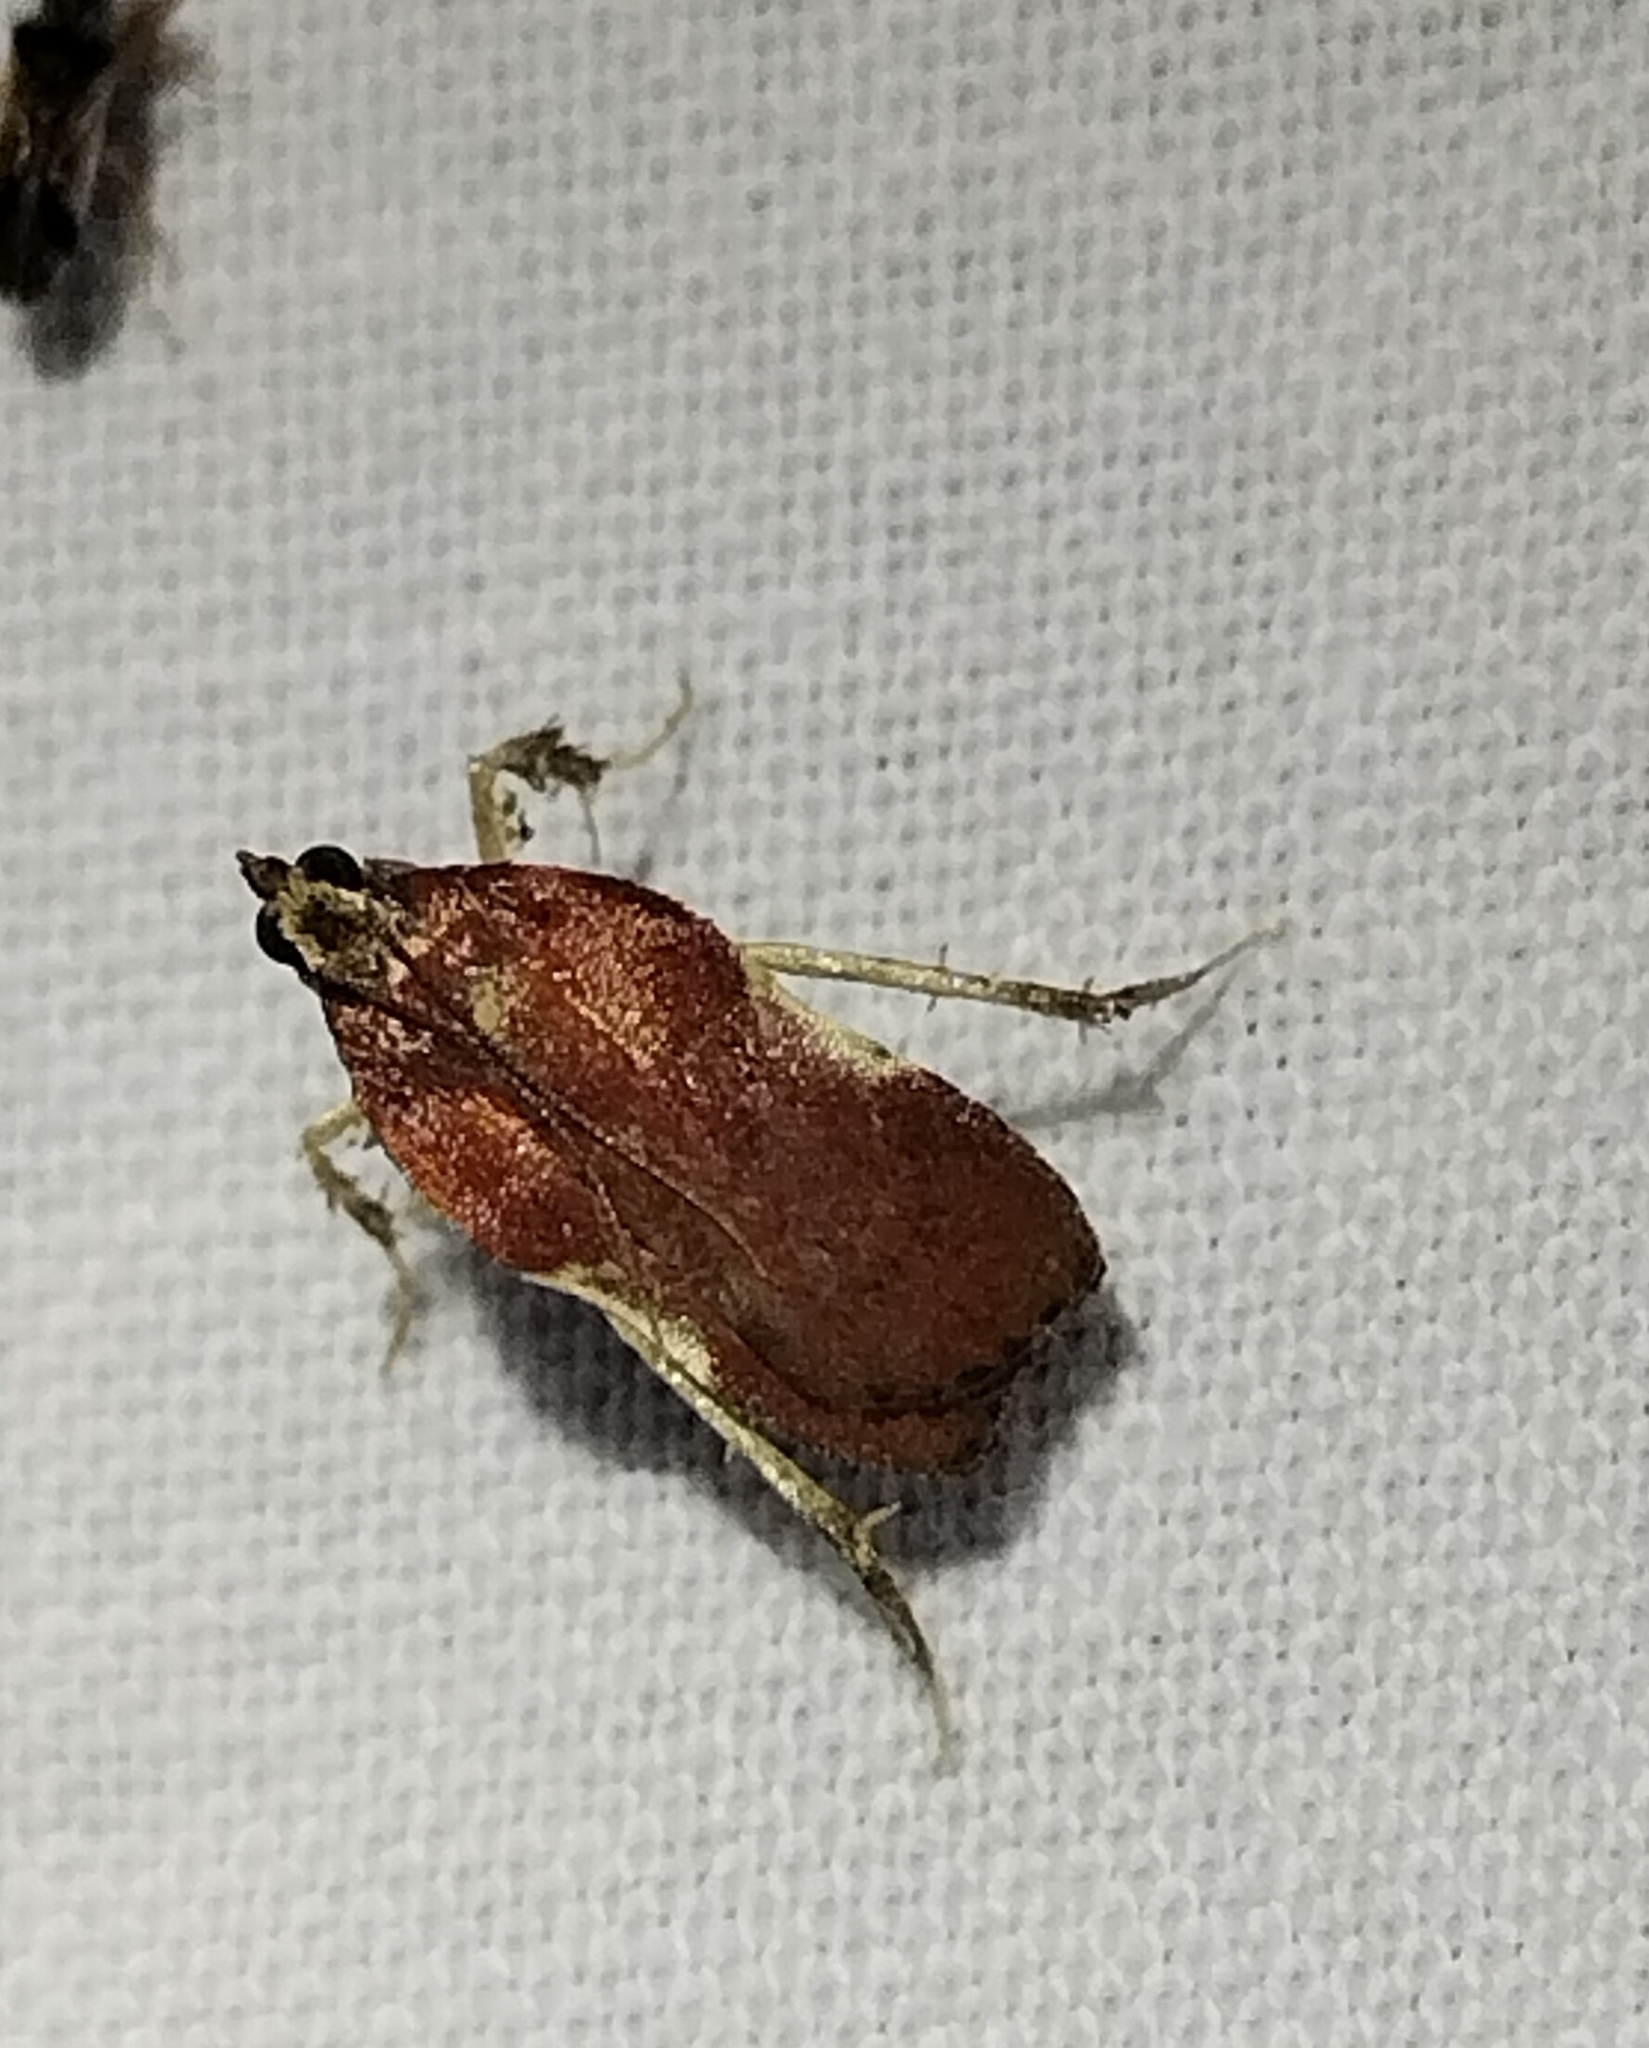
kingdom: Animalia
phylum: Arthropoda
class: Insecta
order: Lepidoptera
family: Pyralidae
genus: Galasa
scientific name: Galasa nigrinodis
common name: Boxwood leaftier moth
